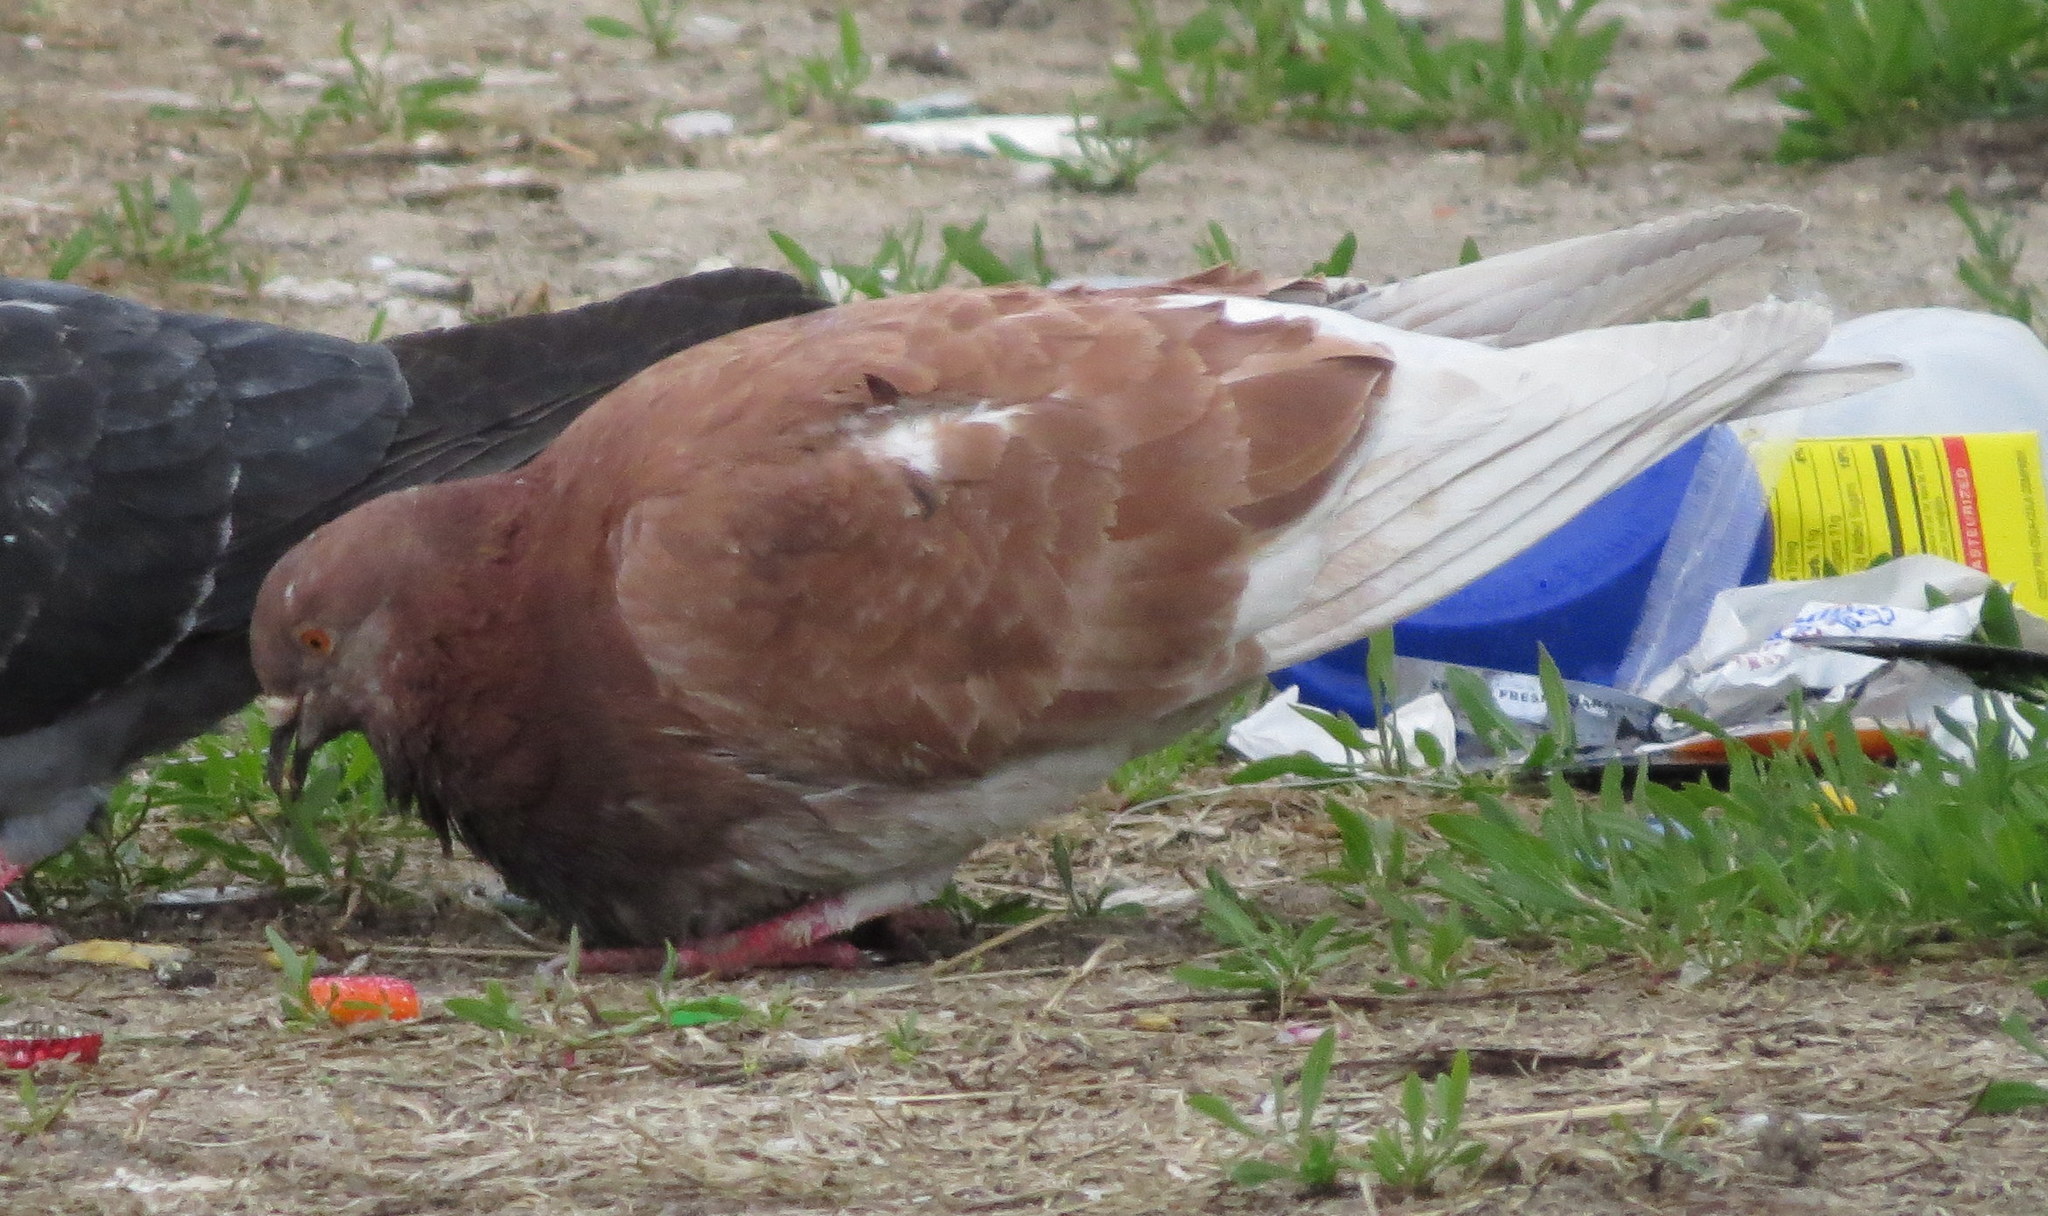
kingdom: Animalia
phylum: Chordata
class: Aves
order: Columbiformes
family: Columbidae
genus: Columba
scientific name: Columba livia
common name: Rock pigeon
